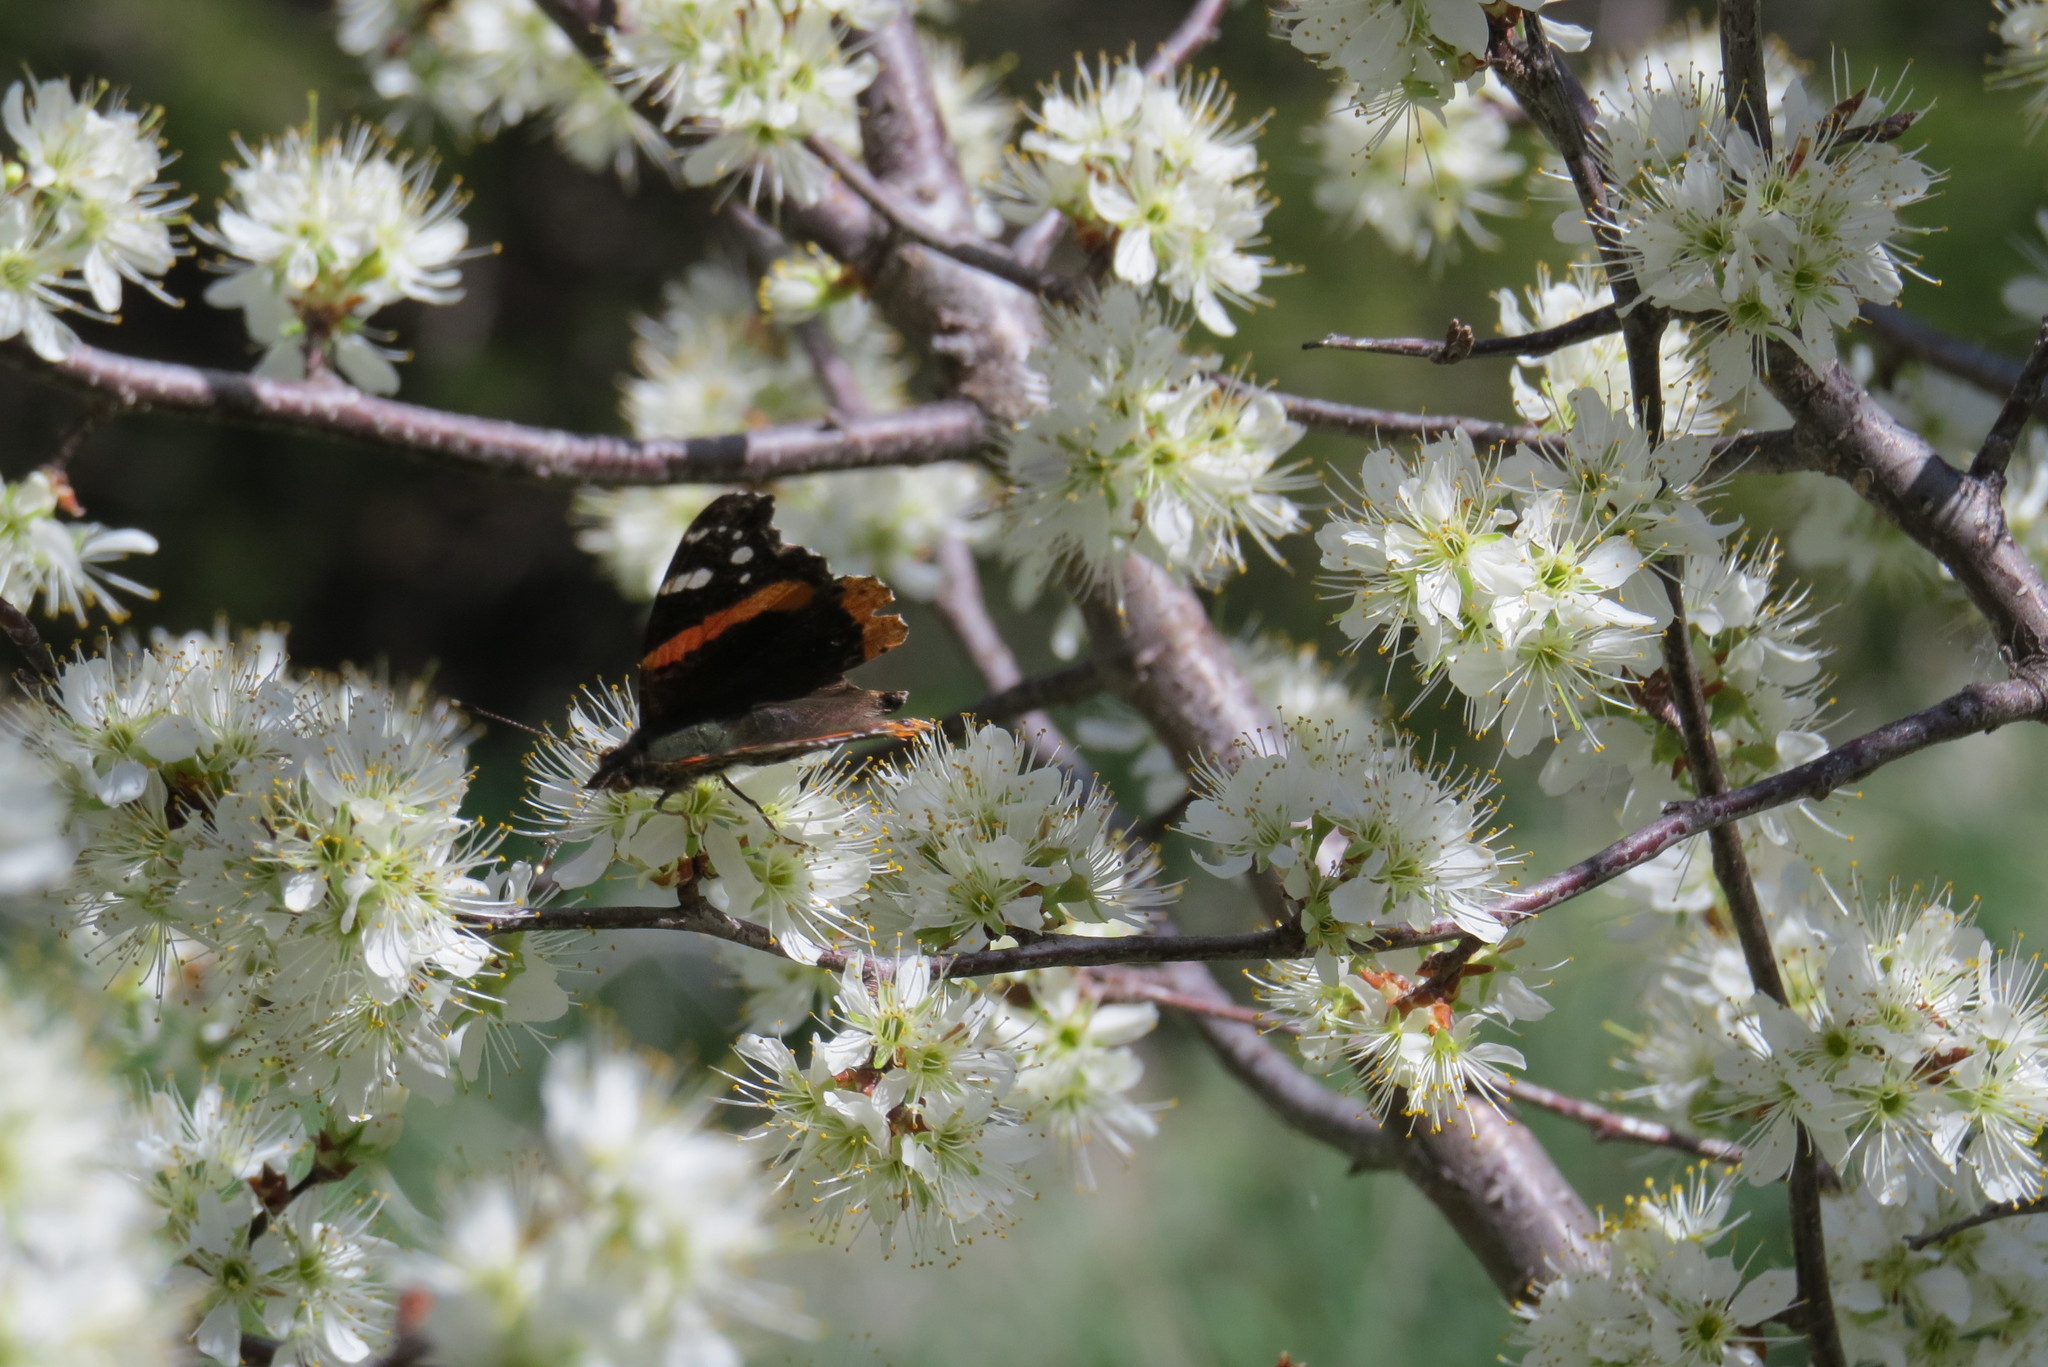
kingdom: Animalia
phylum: Arthropoda
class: Insecta
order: Lepidoptera
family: Nymphalidae
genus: Vanessa
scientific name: Vanessa atalanta
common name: Red admiral
